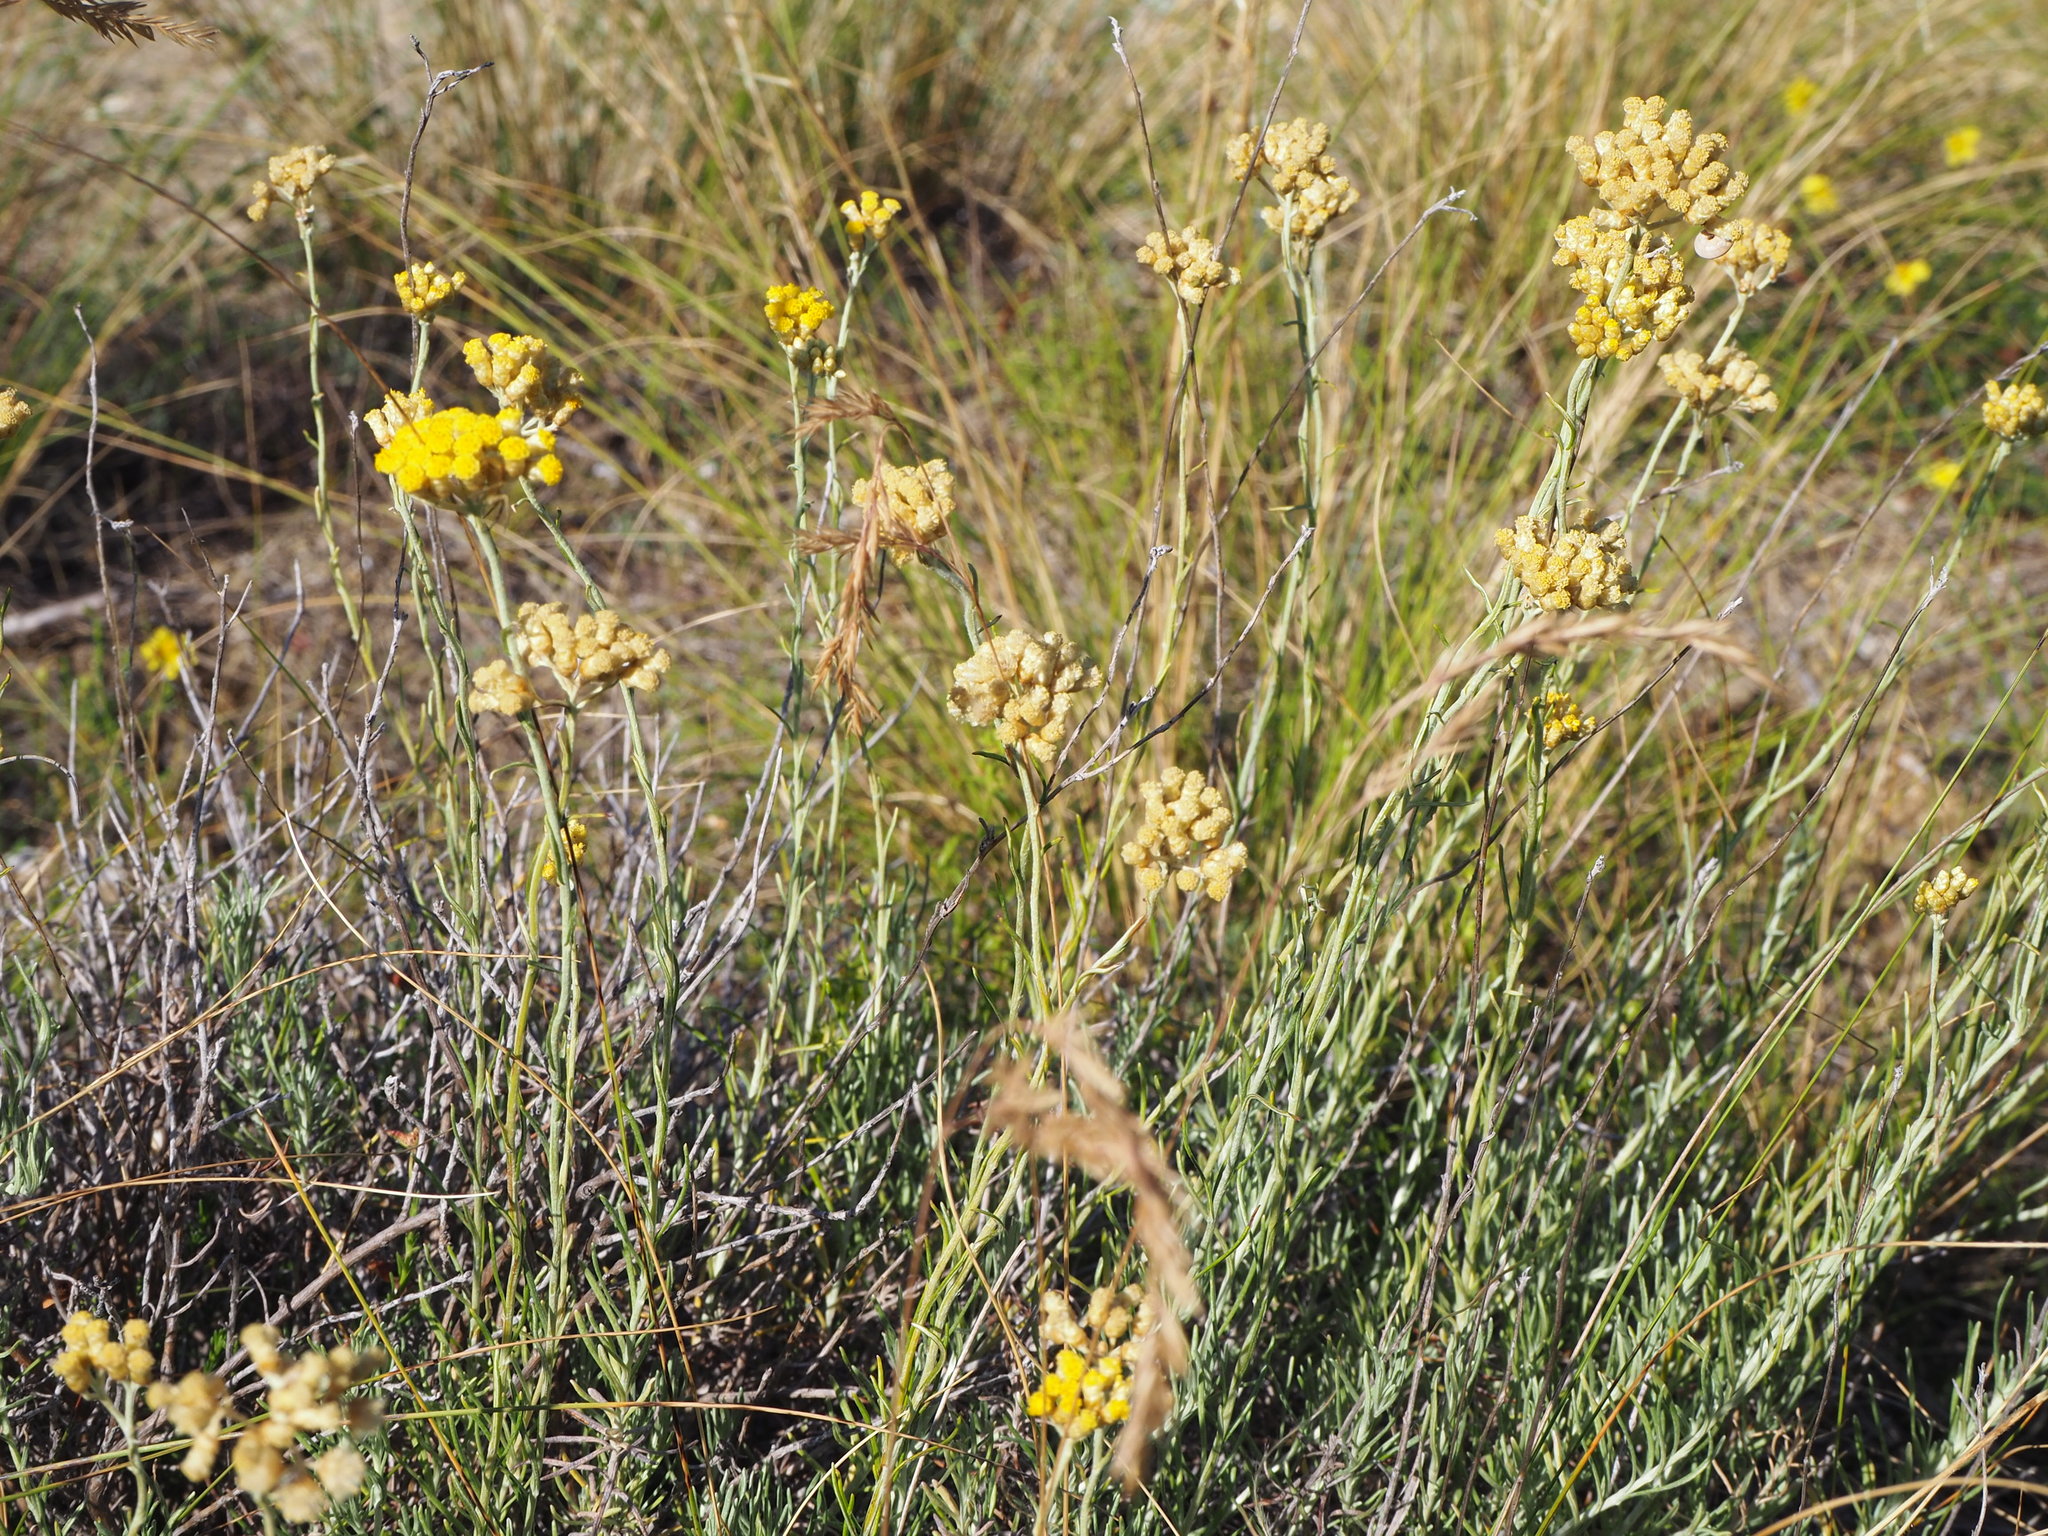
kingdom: Plantae
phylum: Tracheophyta
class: Magnoliopsida
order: Asterales
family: Asteraceae
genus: Helichrysum
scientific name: Helichrysum italicum
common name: Curryplant
